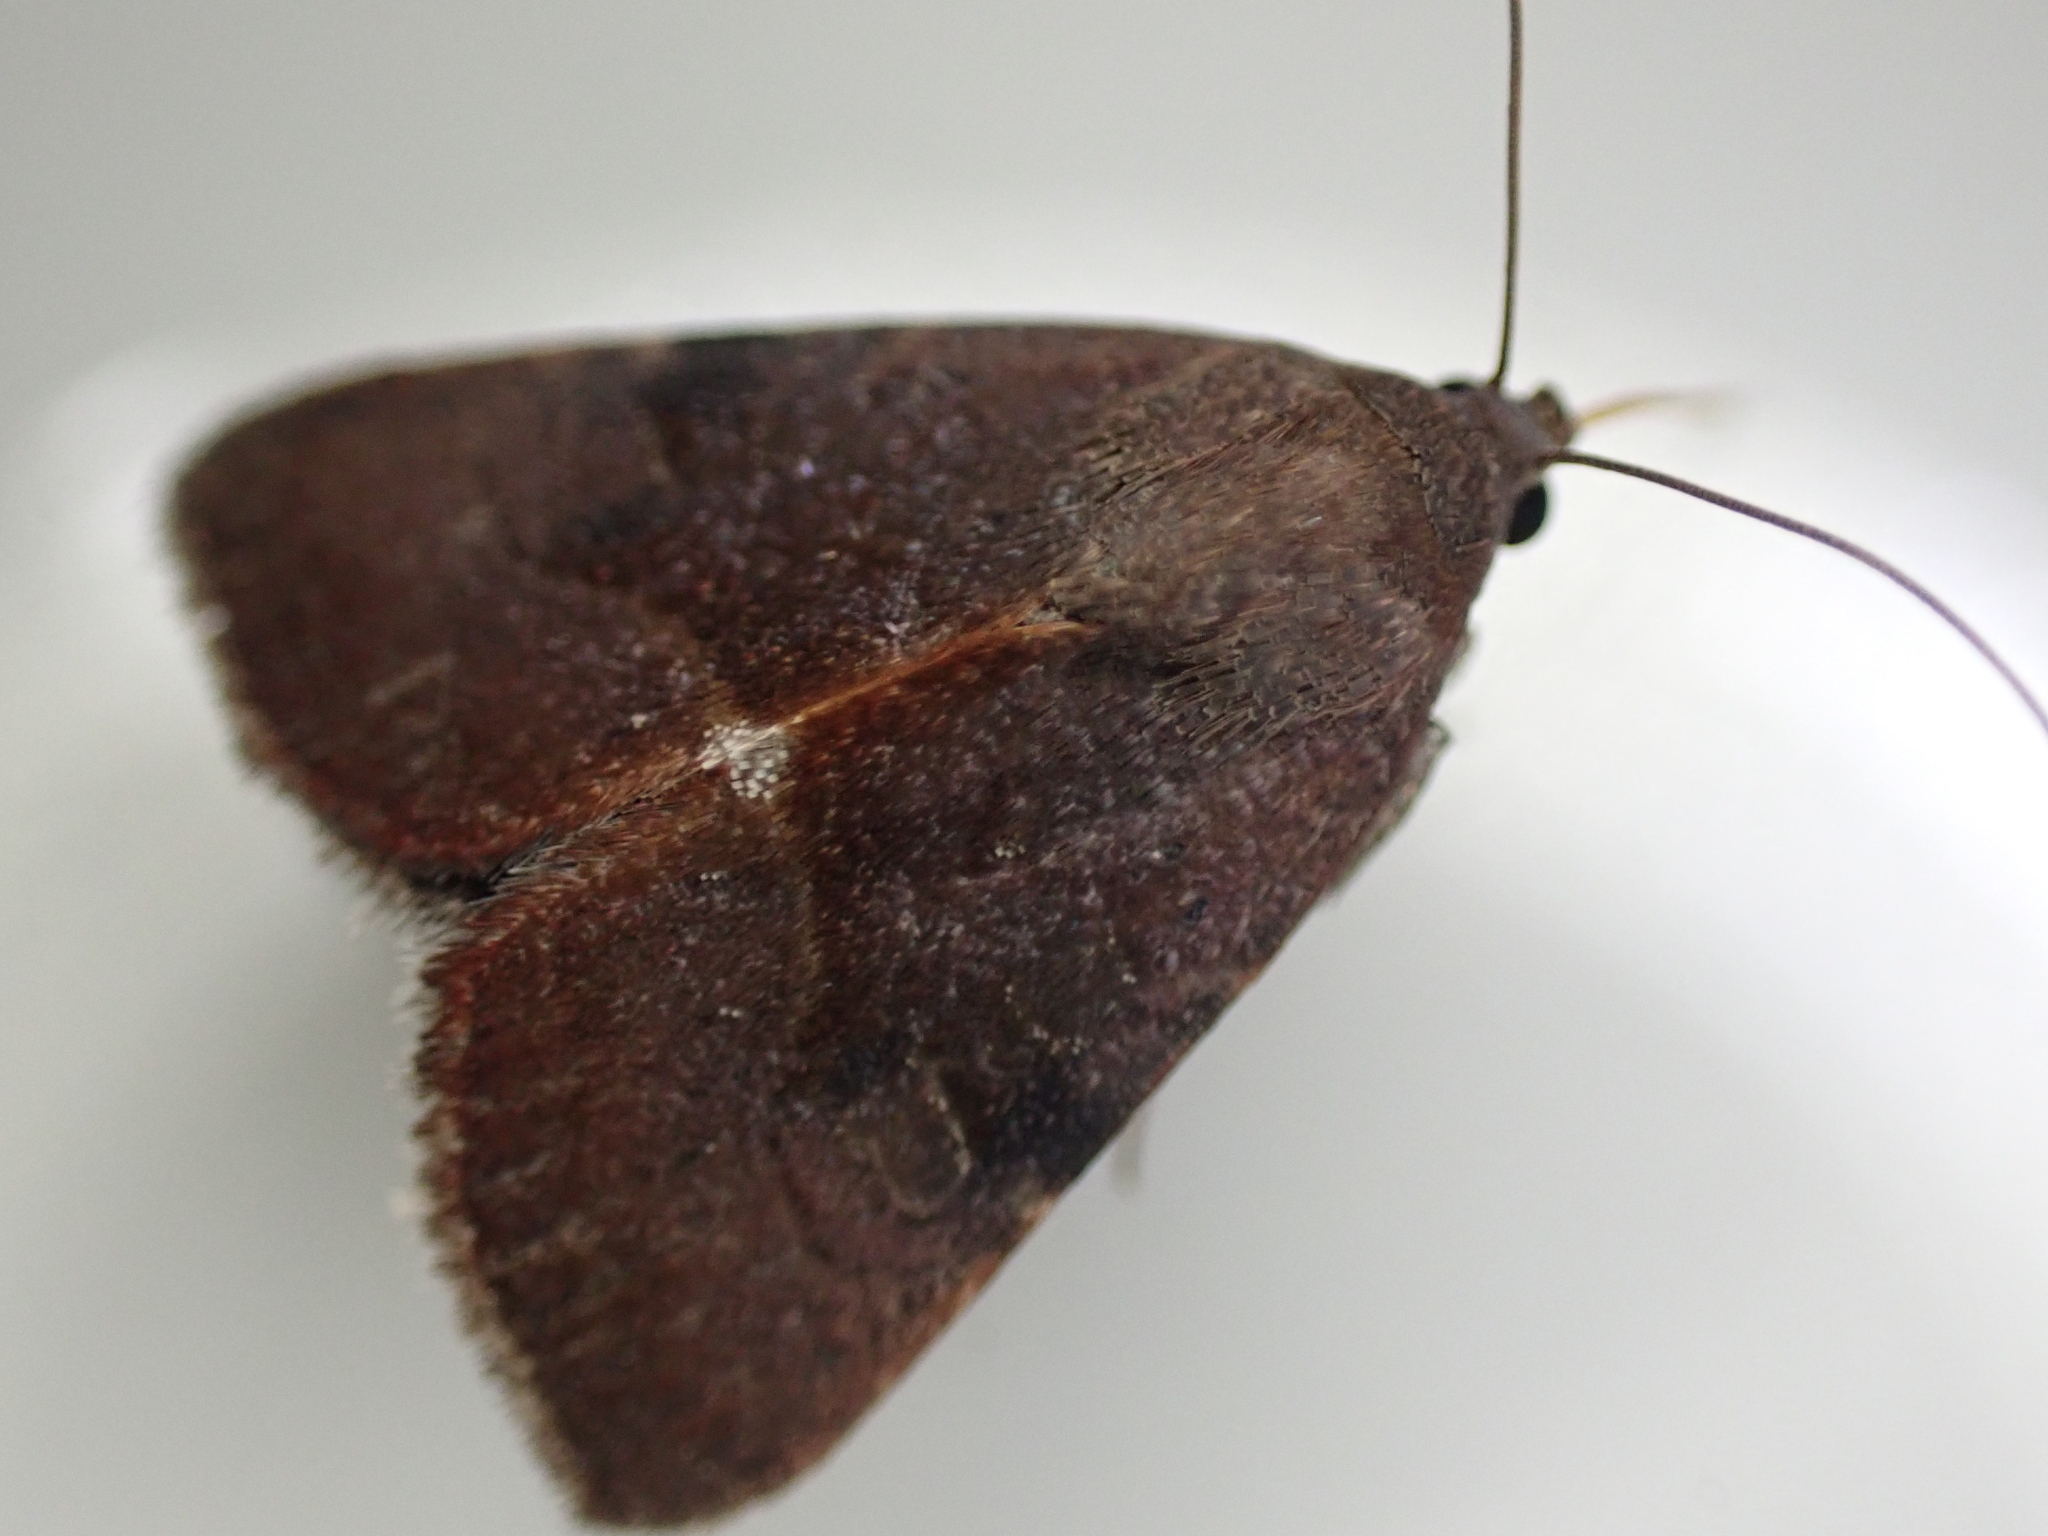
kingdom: Animalia
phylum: Arthropoda
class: Insecta
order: Lepidoptera
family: Noctuidae
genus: Galgula
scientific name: Galgula partita
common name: Wedgeling
